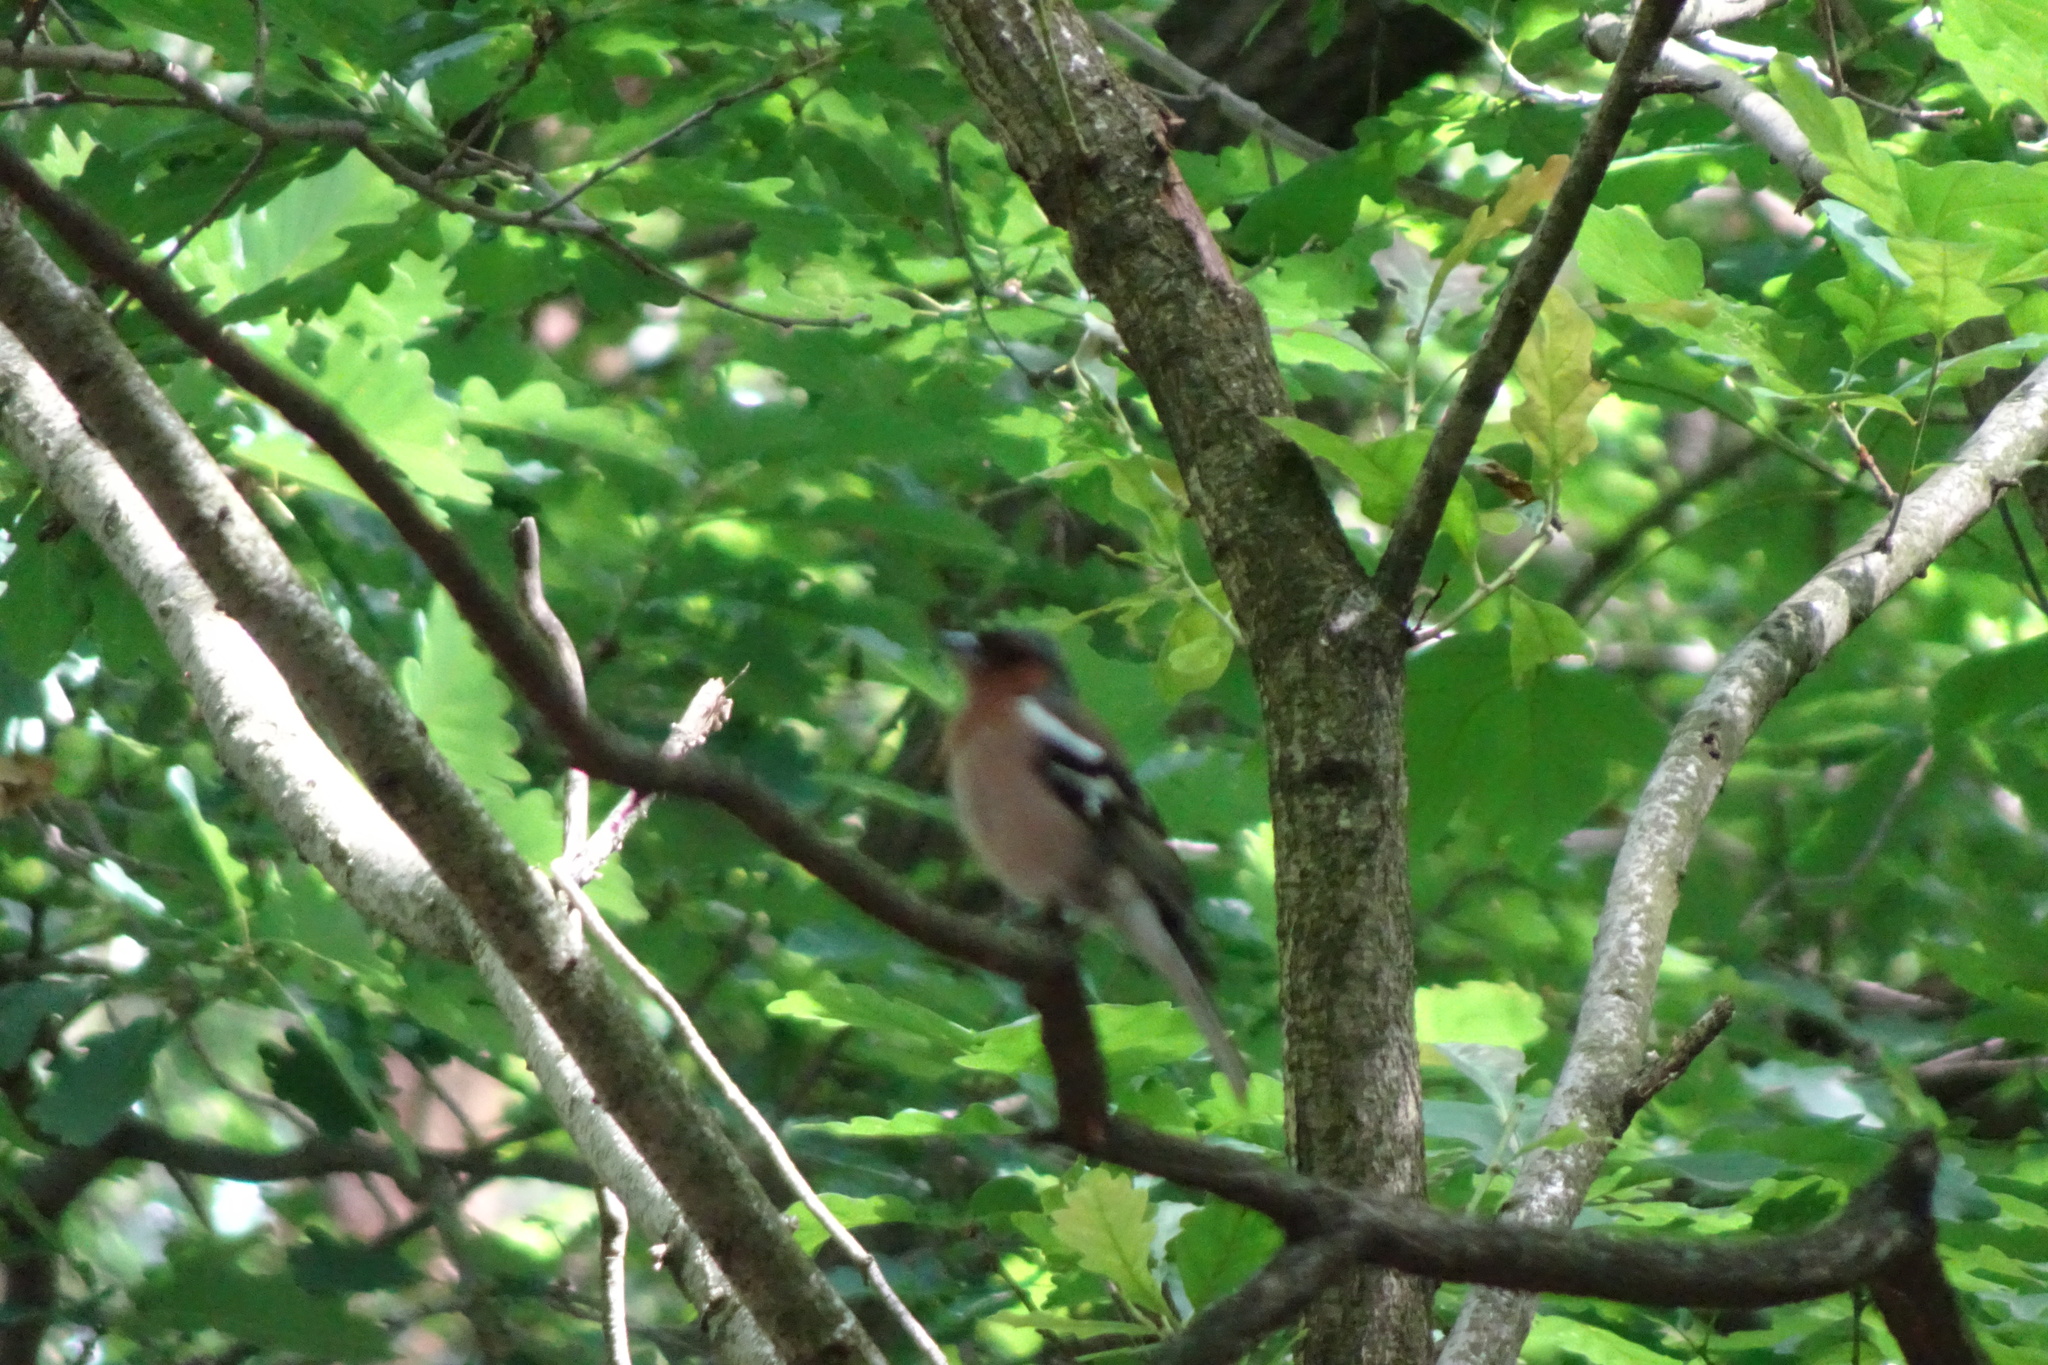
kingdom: Animalia
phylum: Chordata
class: Aves
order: Passeriformes
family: Fringillidae
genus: Fringilla
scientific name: Fringilla coelebs
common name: Common chaffinch
